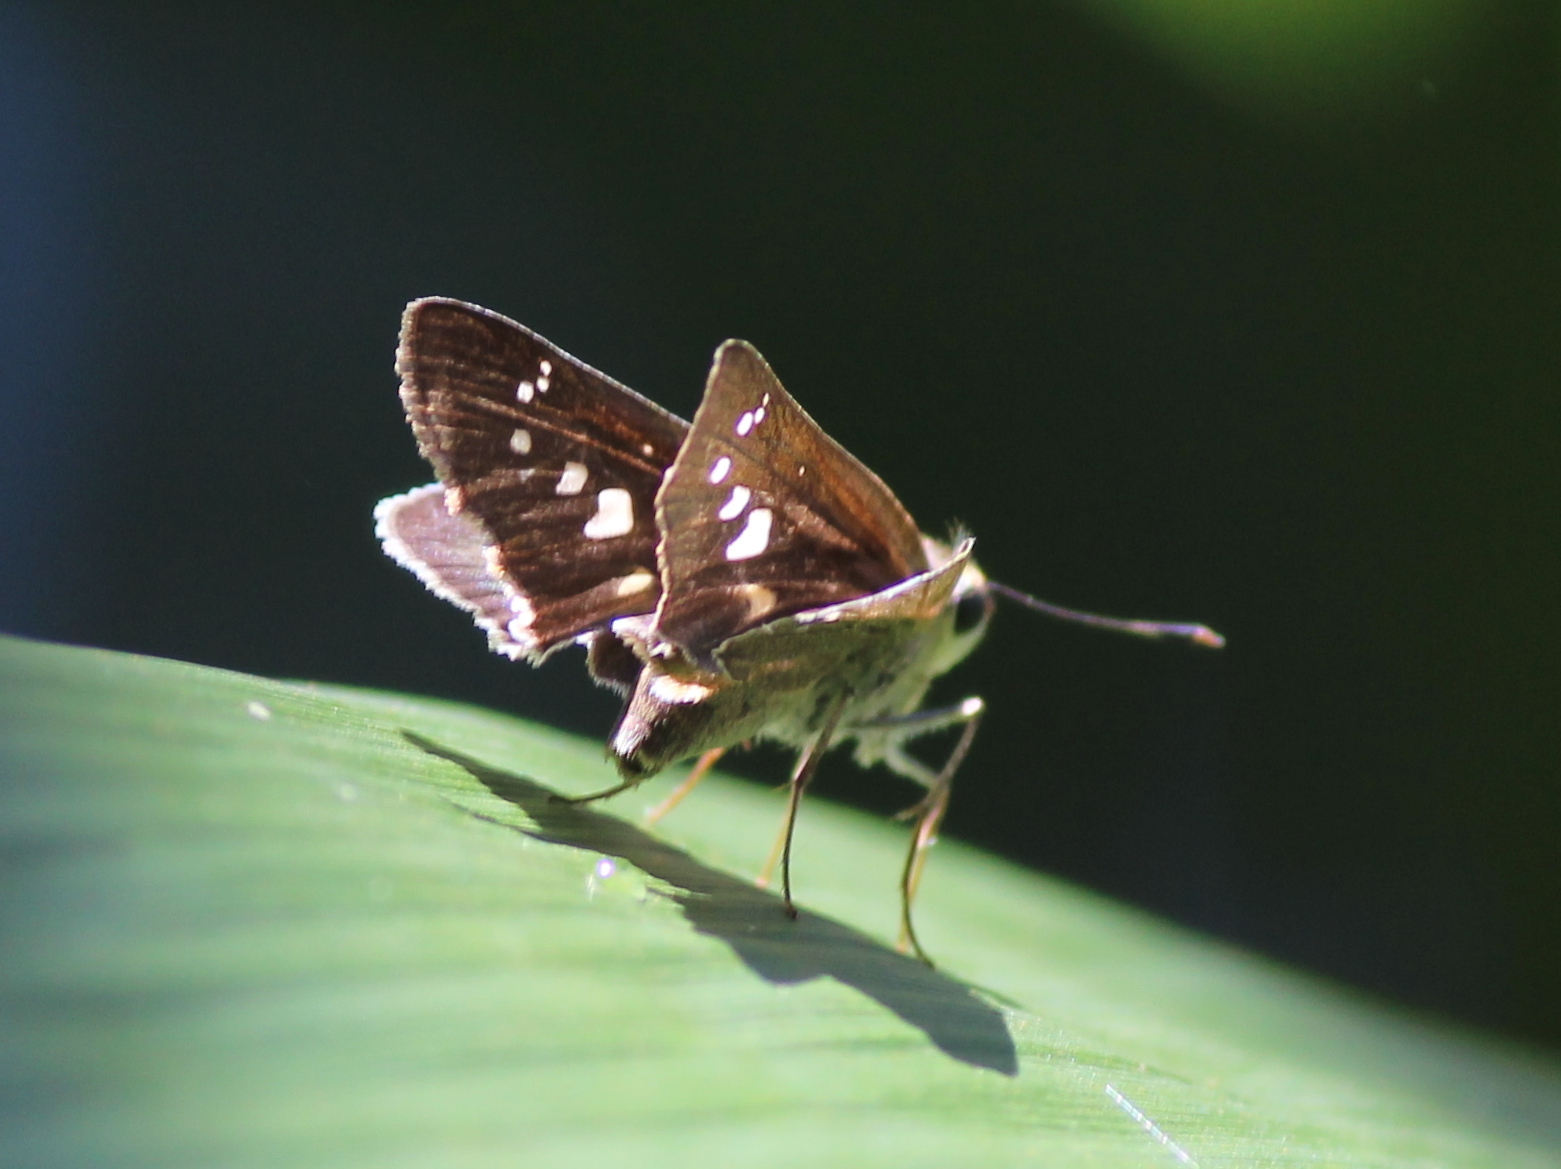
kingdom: Animalia
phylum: Arthropoda
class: Insecta
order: Lepidoptera
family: Hesperiidae
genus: Halpe
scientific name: Halpe homolea
